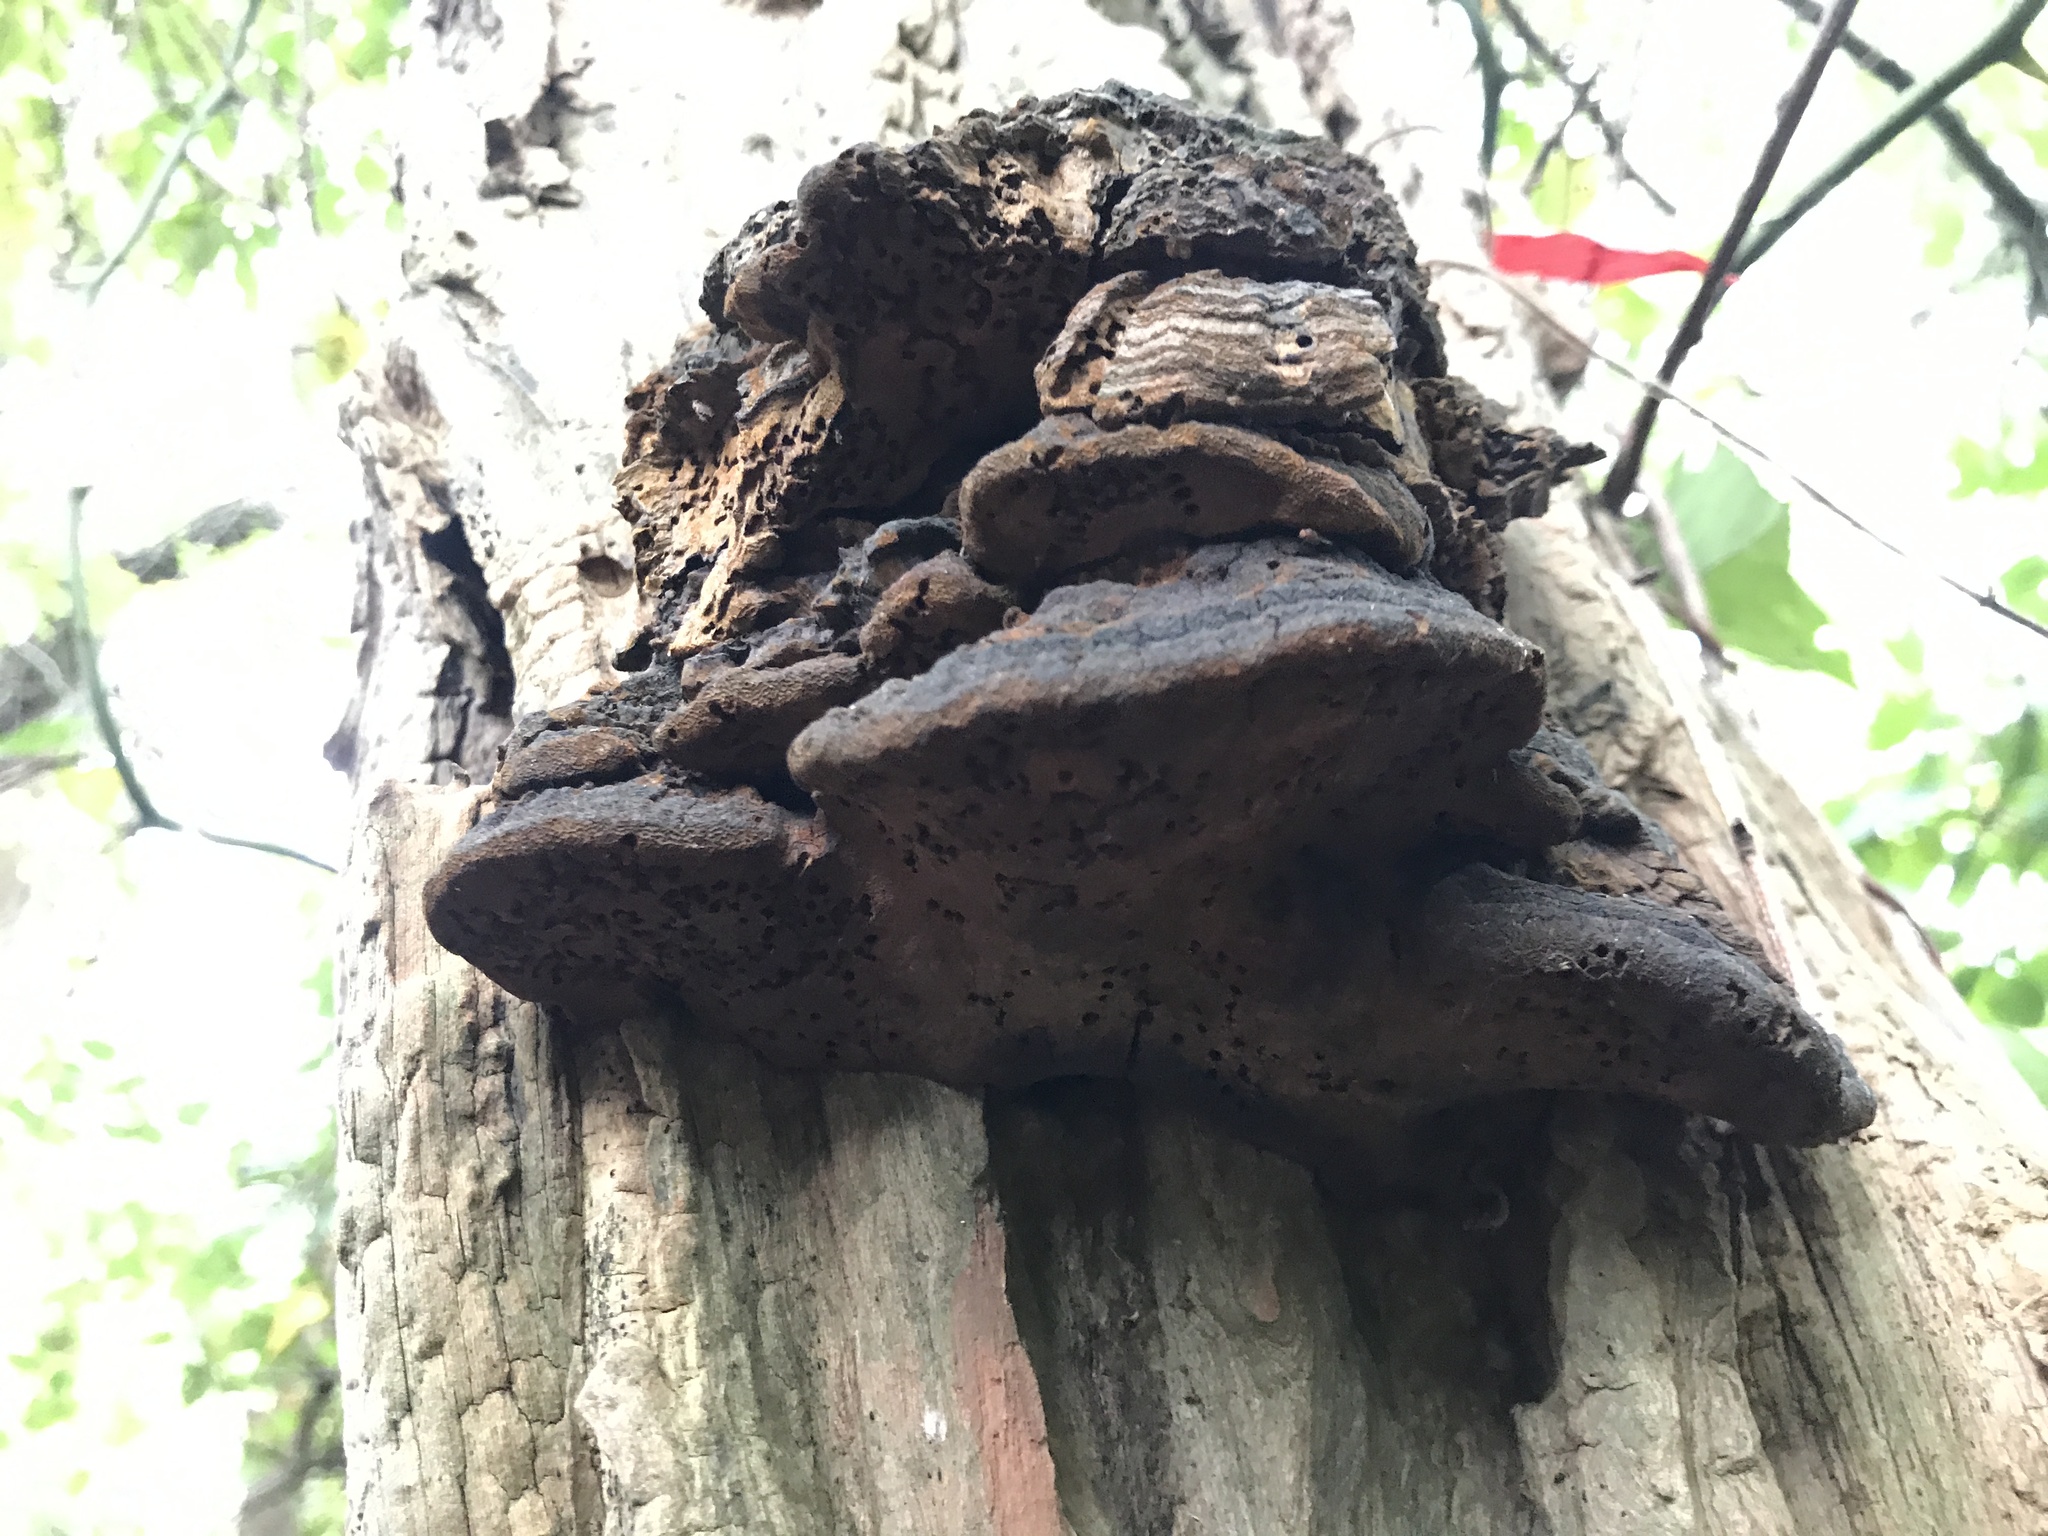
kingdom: Fungi
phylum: Basidiomycota
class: Agaricomycetes
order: Hymenochaetales
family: Hymenochaetaceae
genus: Phellinus
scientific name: Phellinus robiniae
